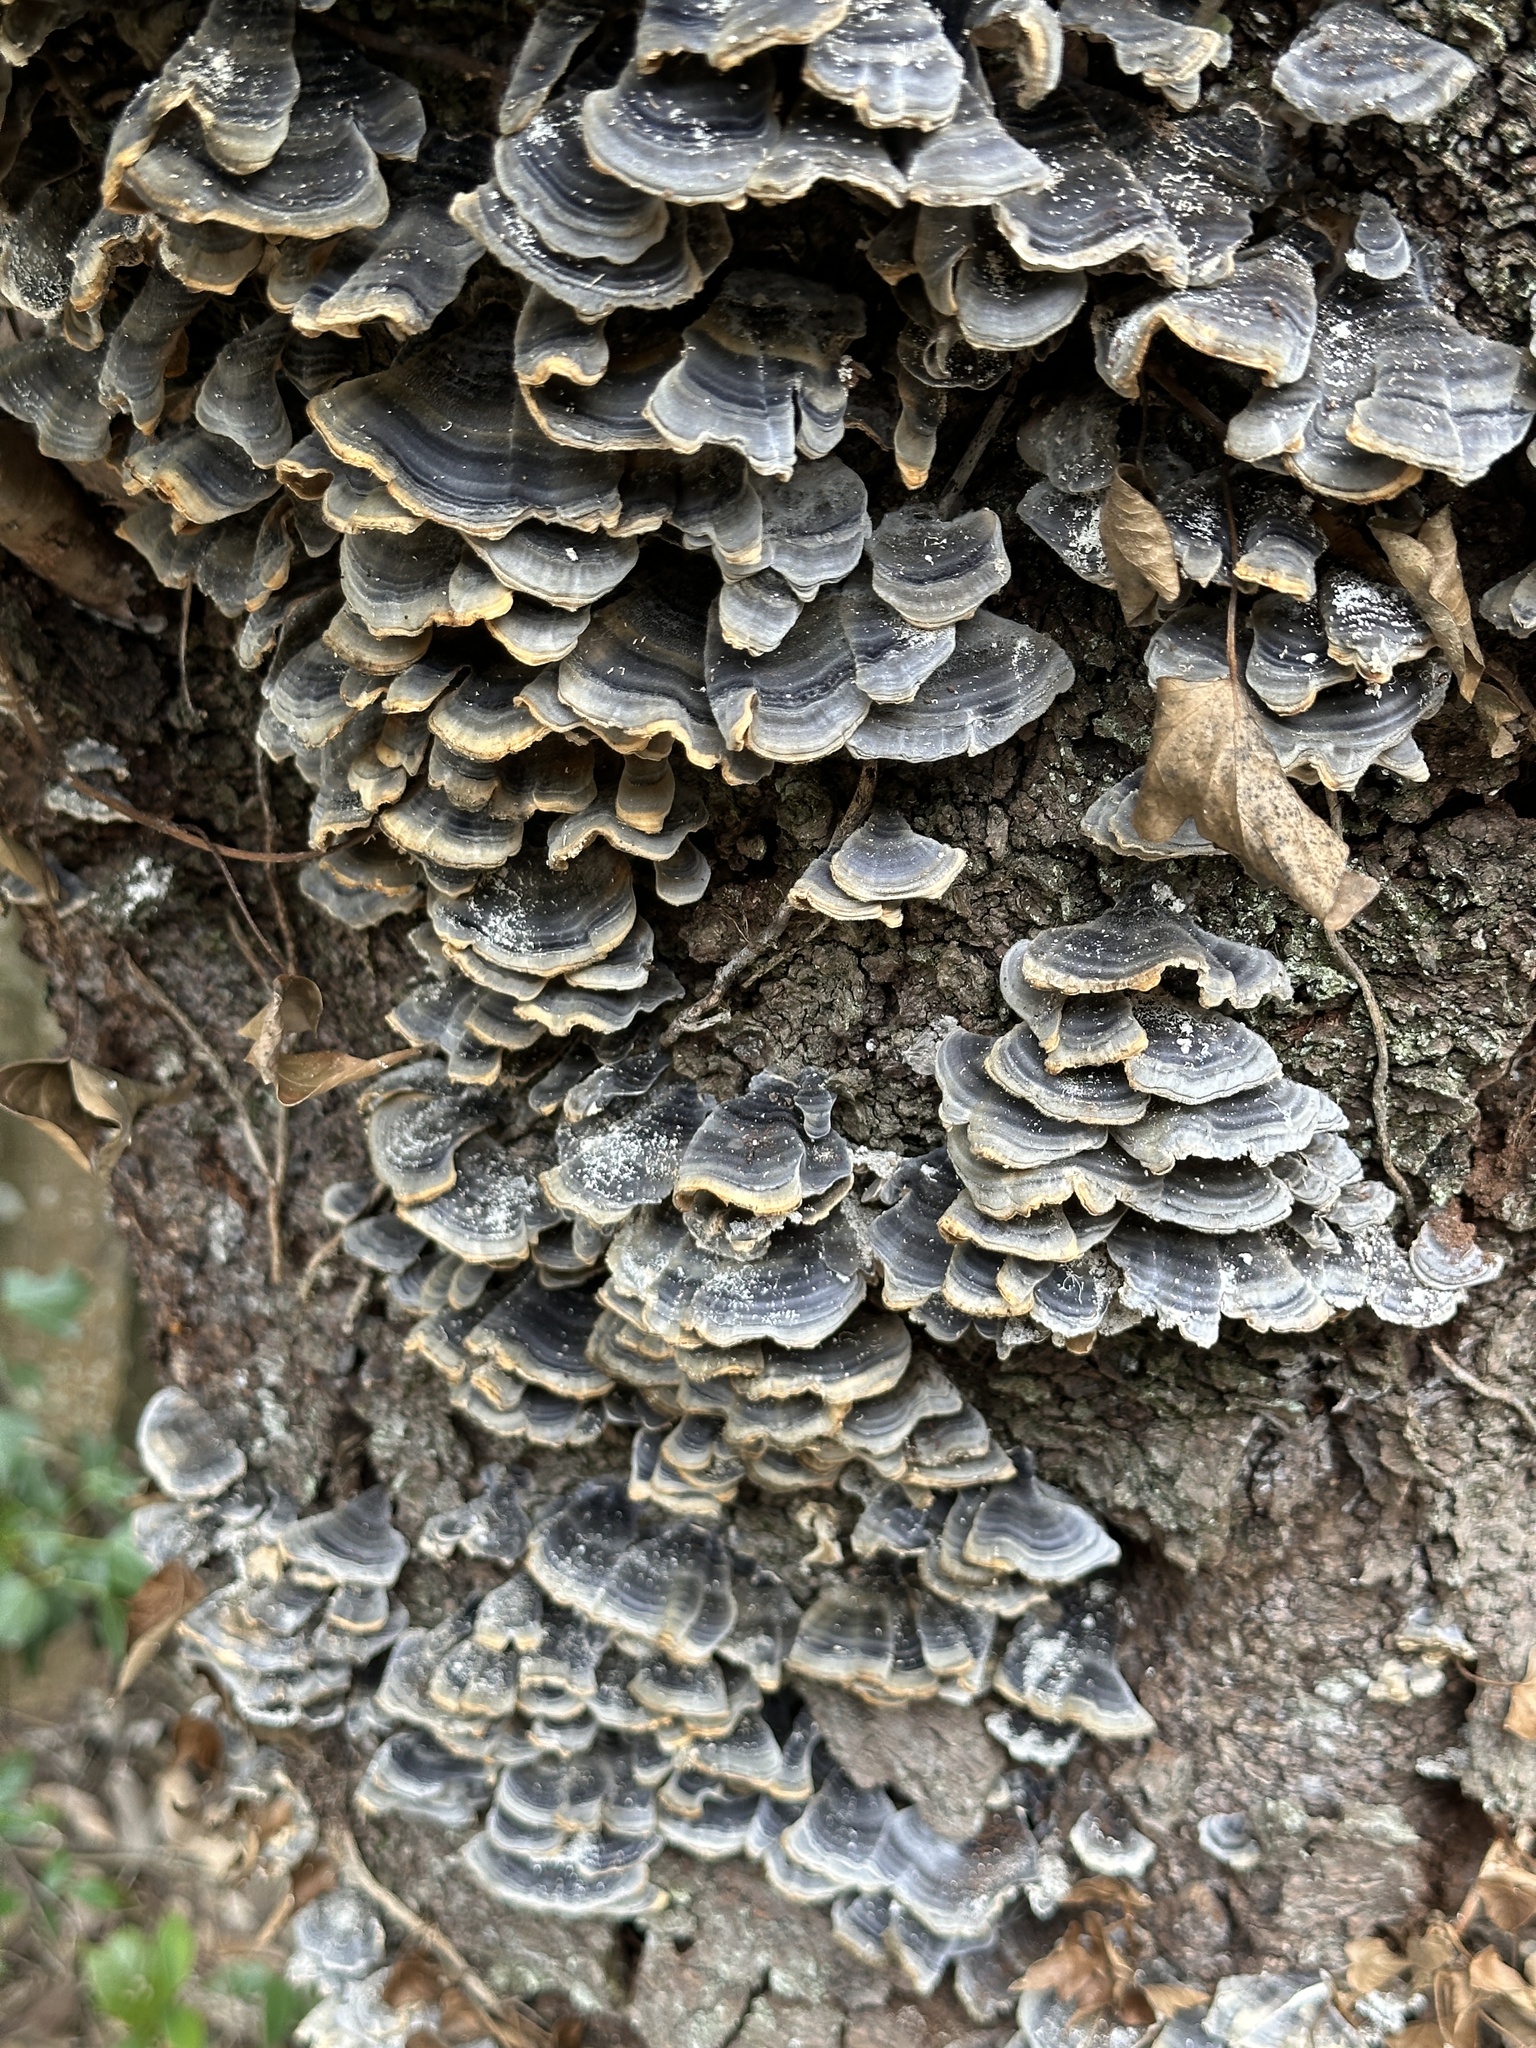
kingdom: Fungi
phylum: Basidiomycota
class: Agaricomycetes
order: Polyporales
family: Polyporaceae
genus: Trametes
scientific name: Trametes versicolor
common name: Turkeytail
